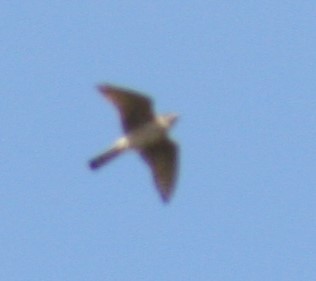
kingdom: Animalia
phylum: Chordata
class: Aves
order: Falconiformes
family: Falconidae
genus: Falco
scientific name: Falco columbarius
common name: Merlin
